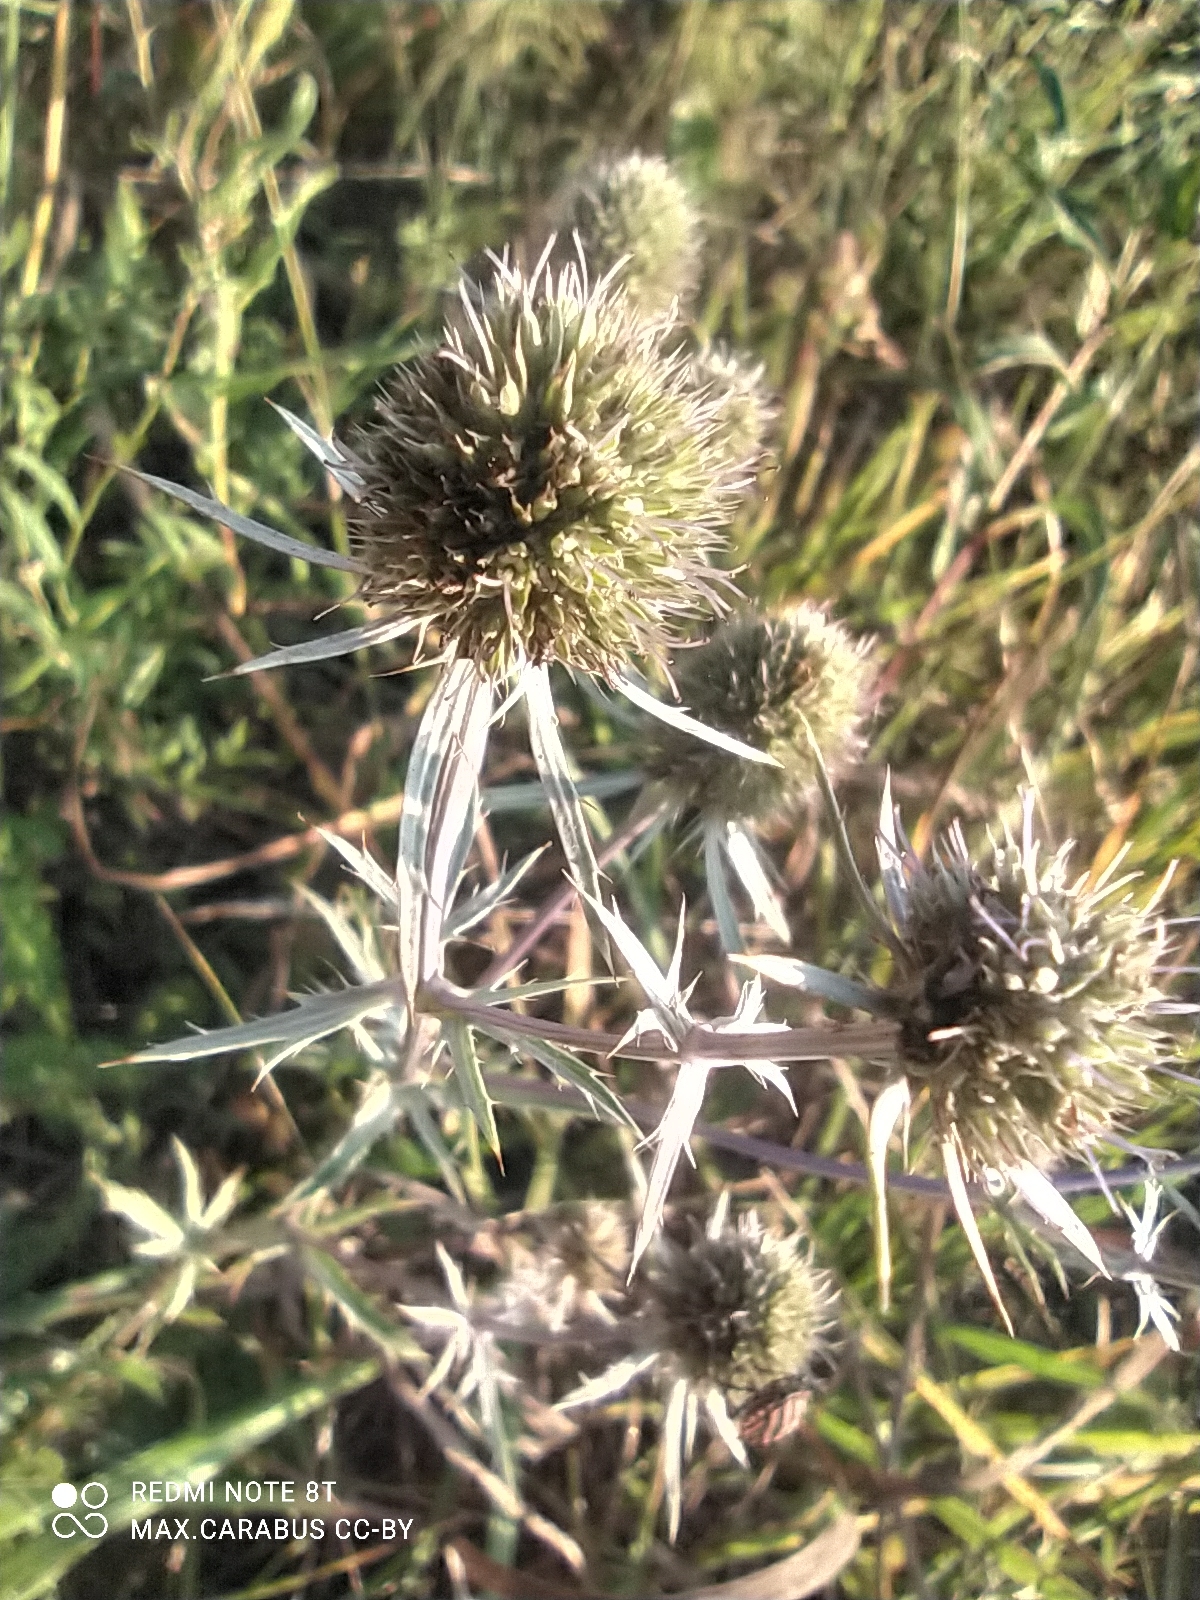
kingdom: Plantae
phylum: Tracheophyta
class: Magnoliopsida
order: Apiales
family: Apiaceae
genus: Eryngium
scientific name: Eryngium planum
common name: Blue eryngo
